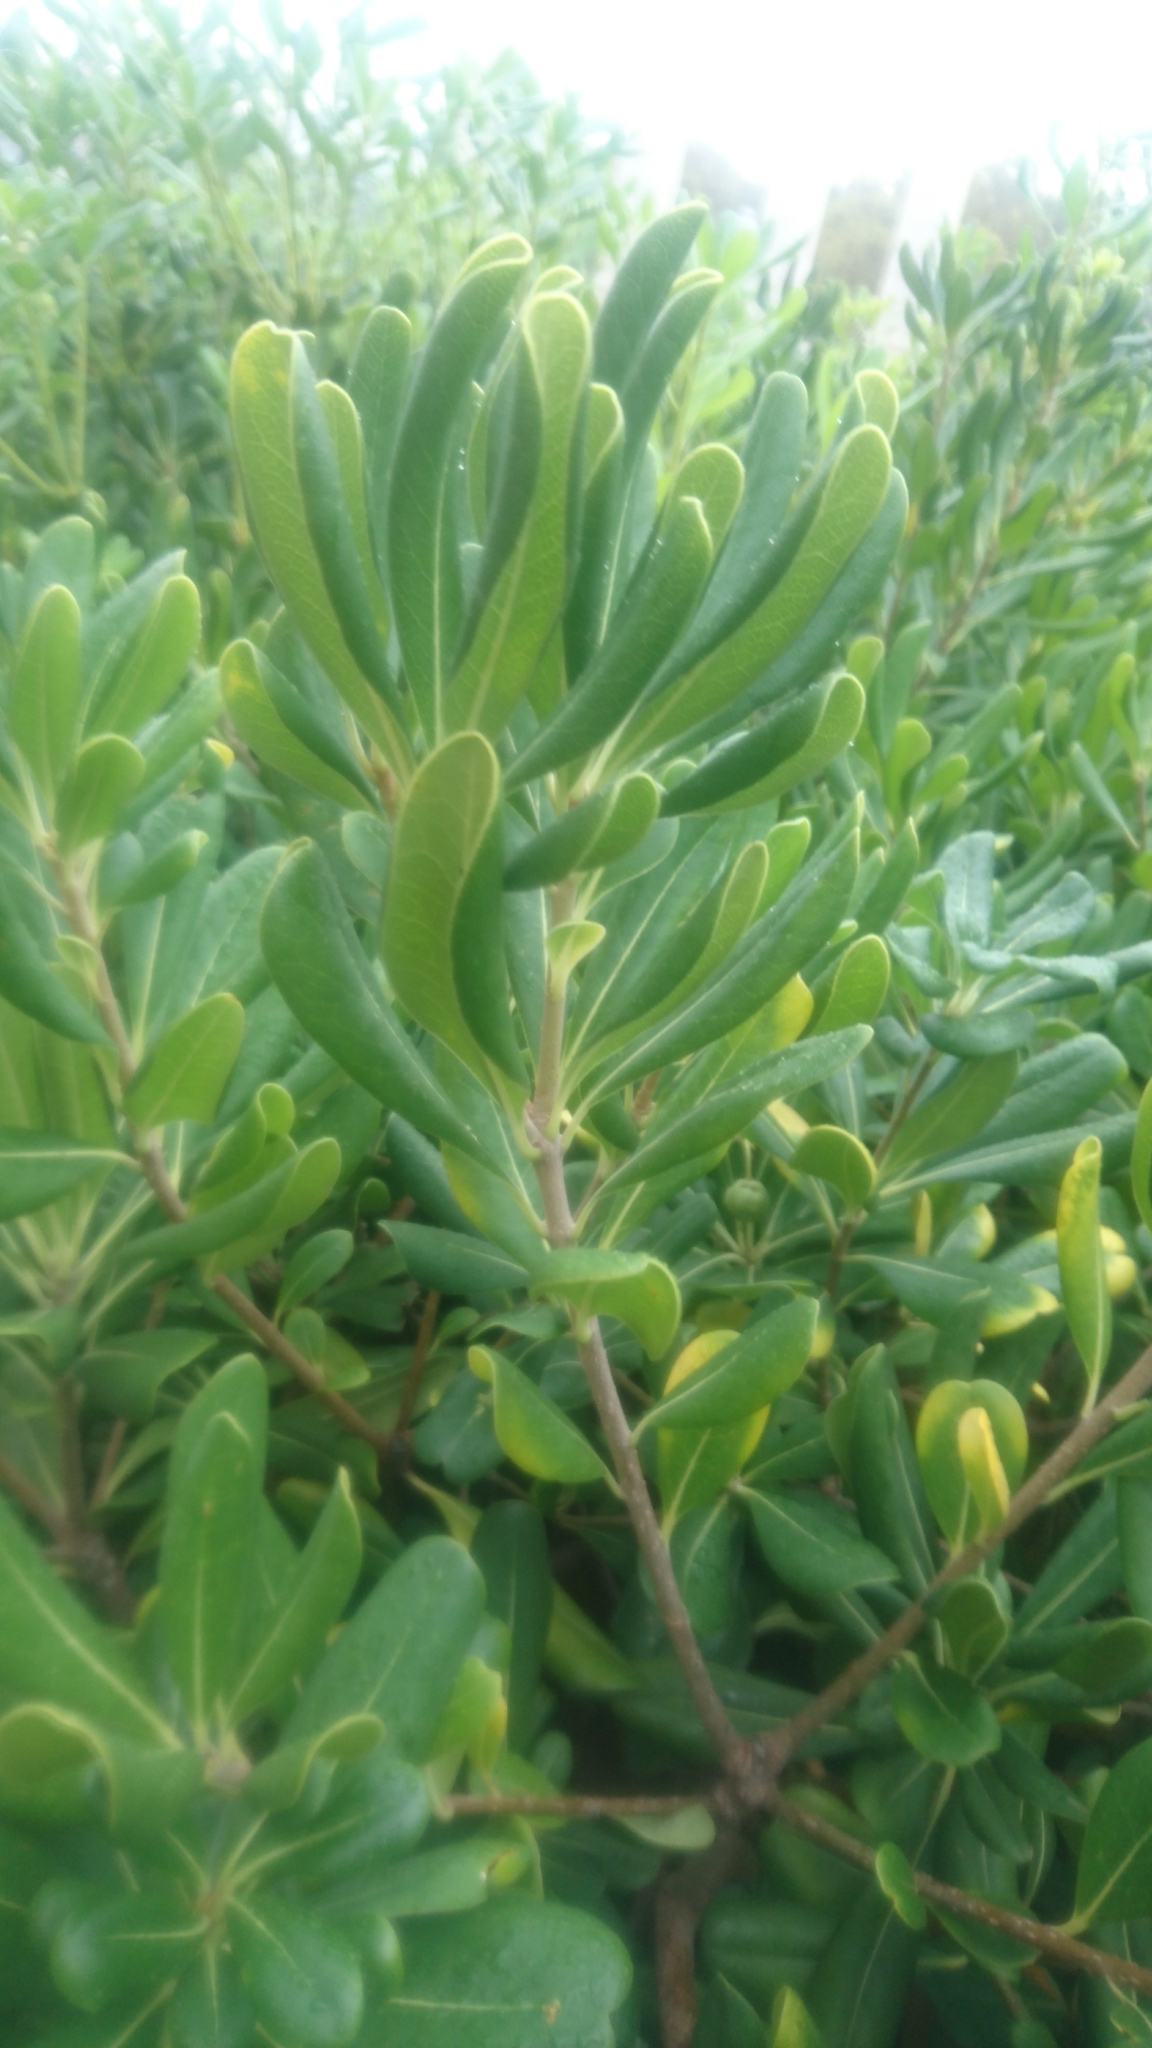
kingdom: Plantae
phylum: Tracheophyta
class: Magnoliopsida
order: Apiales
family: Pittosporaceae
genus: Pittosporum
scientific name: Pittosporum tobira
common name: Japanese cheesewood
